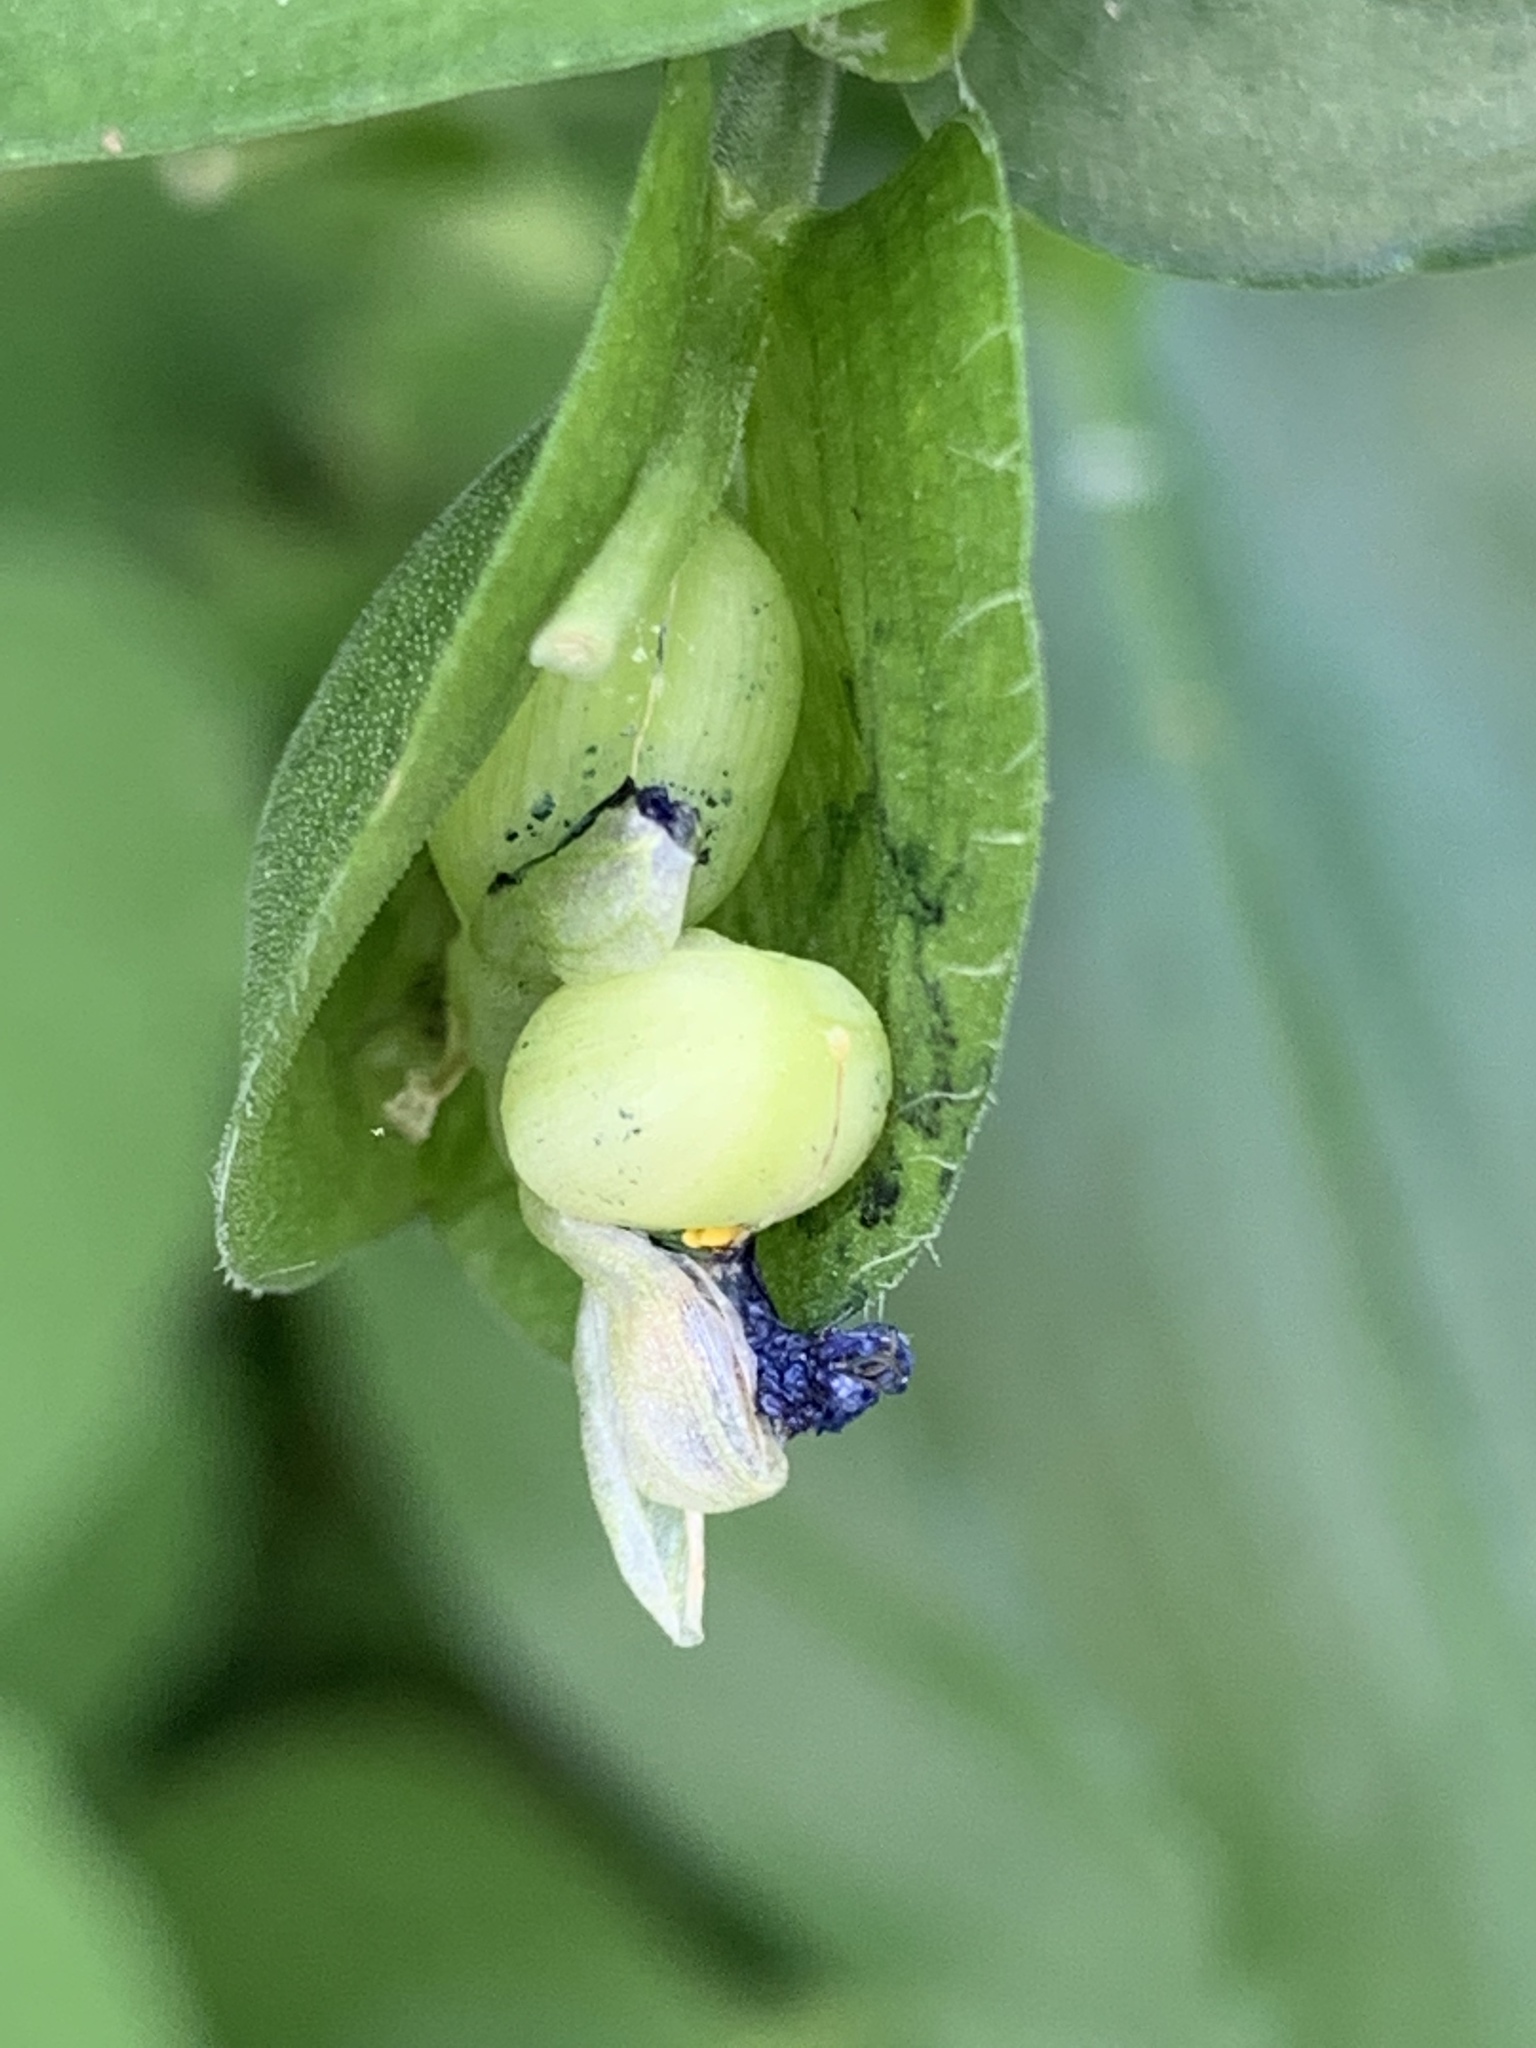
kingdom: Plantae
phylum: Tracheophyta
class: Liliopsida
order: Commelinales
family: Commelinaceae
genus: Commelina
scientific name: Commelina communis
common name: Asiatic dayflower
